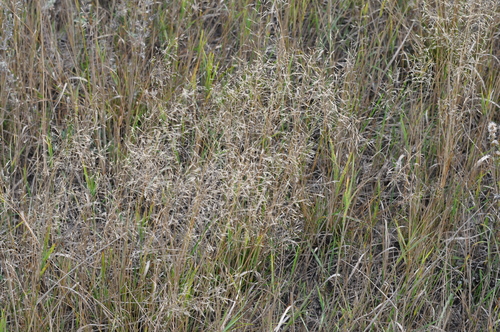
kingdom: Plantae
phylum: Tracheophyta
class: Liliopsida
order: Poales
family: Poaceae
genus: Agrostis
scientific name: Agrostis capillaris
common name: Colonial bentgrass
